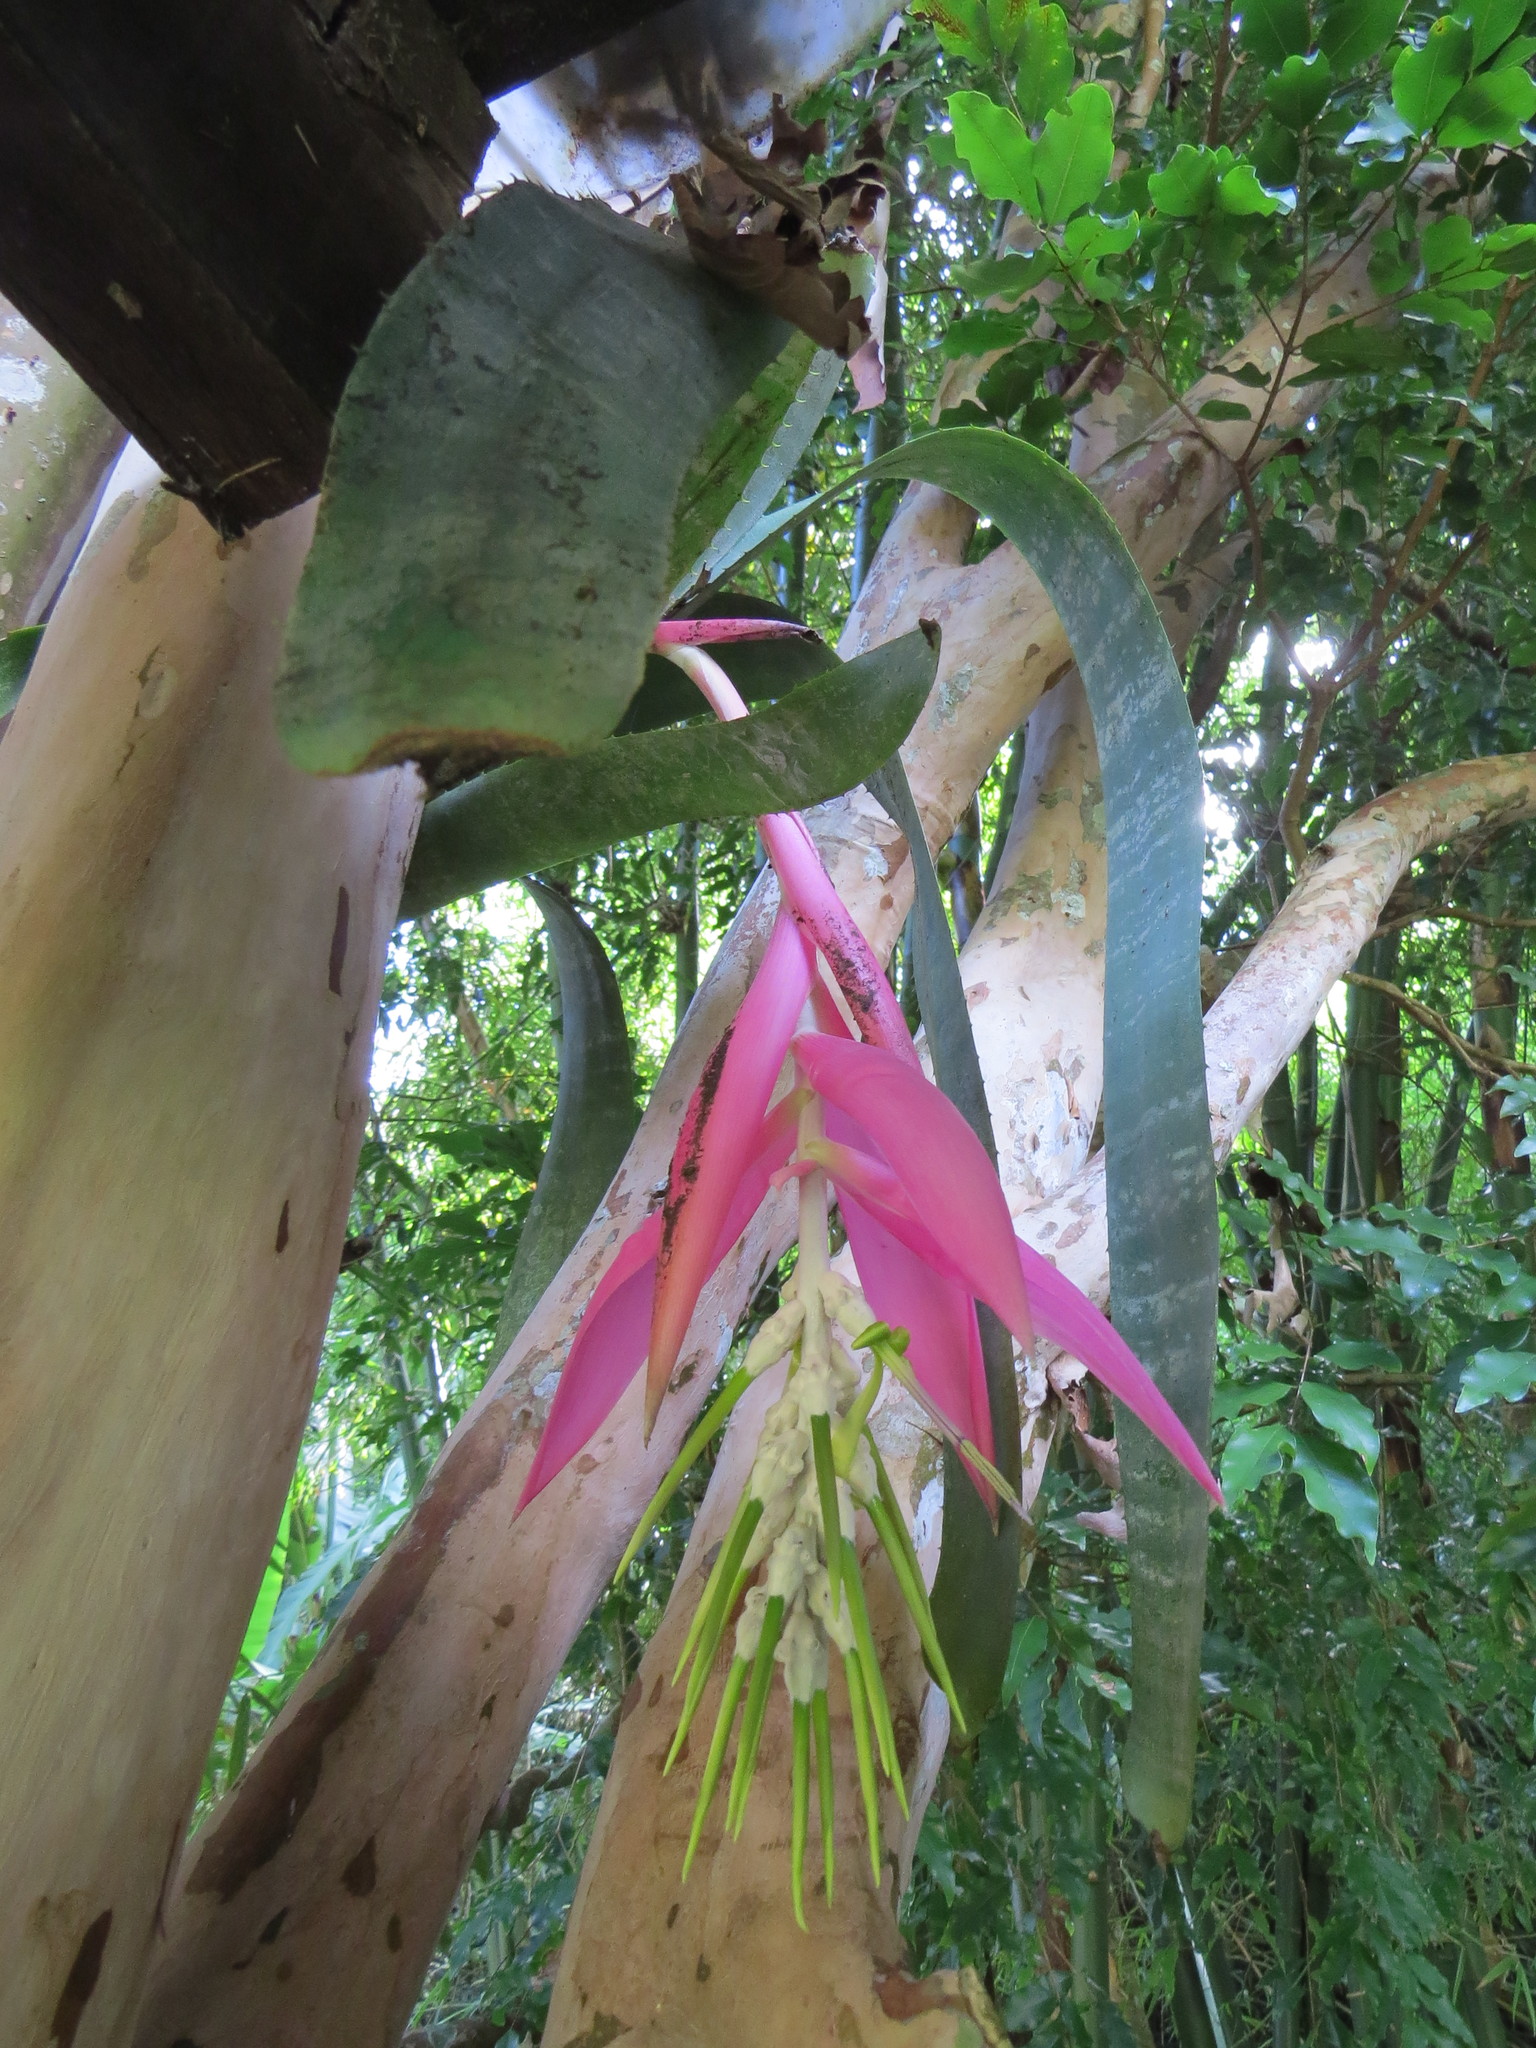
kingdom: Plantae
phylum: Tracheophyta
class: Liliopsida
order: Poales
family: Bromeliaceae
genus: Billbergia
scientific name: Billbergia zebrina
